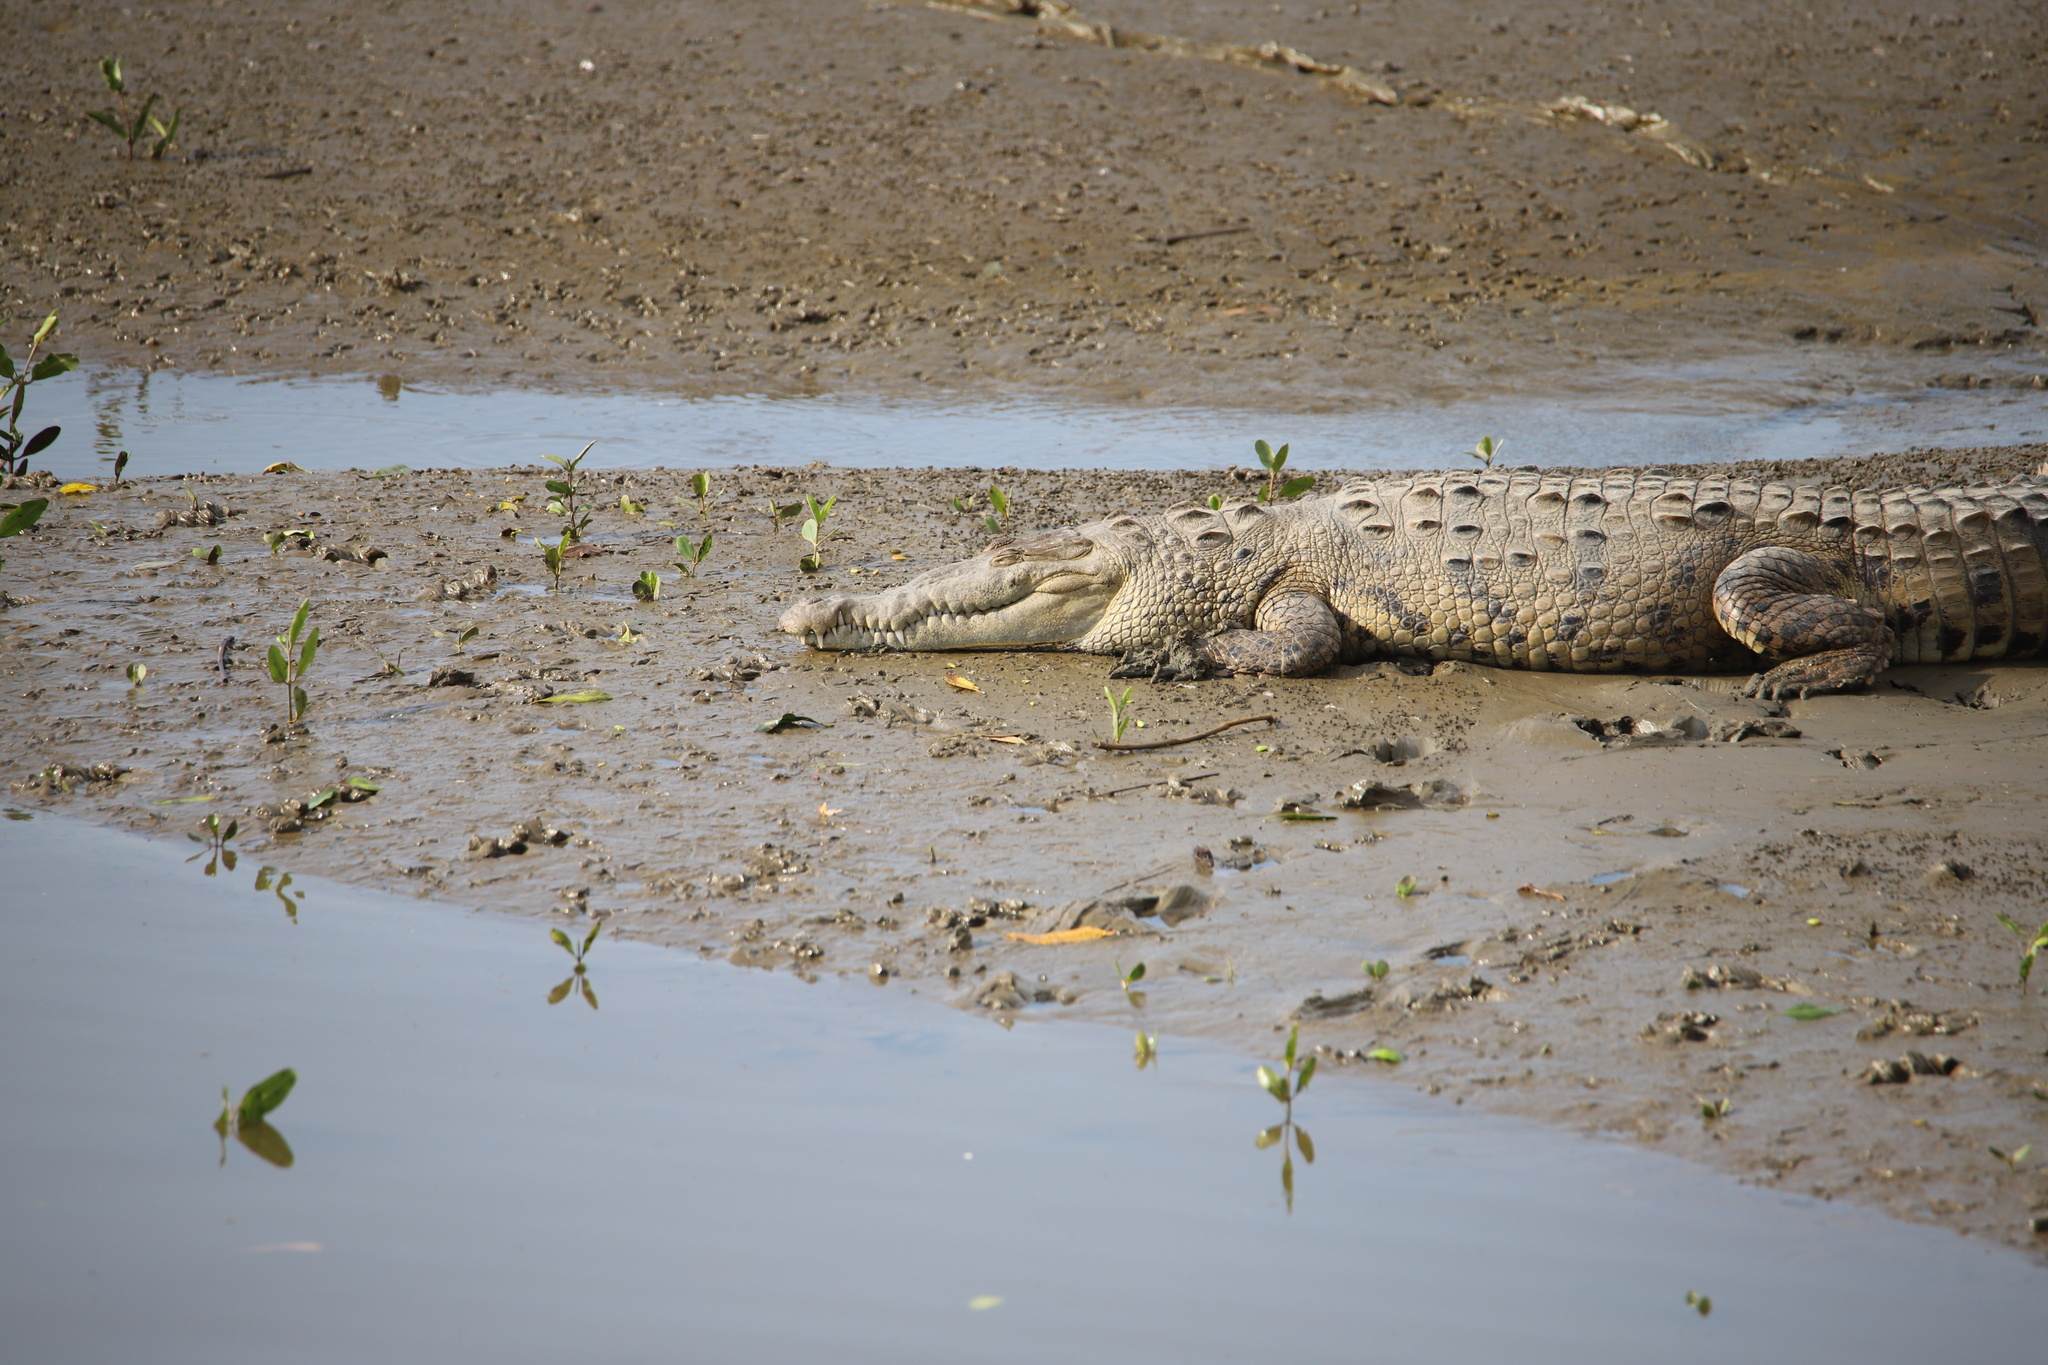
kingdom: Animalia
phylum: Chordata
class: Crocodylia
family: Crocodylidae
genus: Crocodylus
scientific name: Crocodylus acutus
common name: American crocodile
